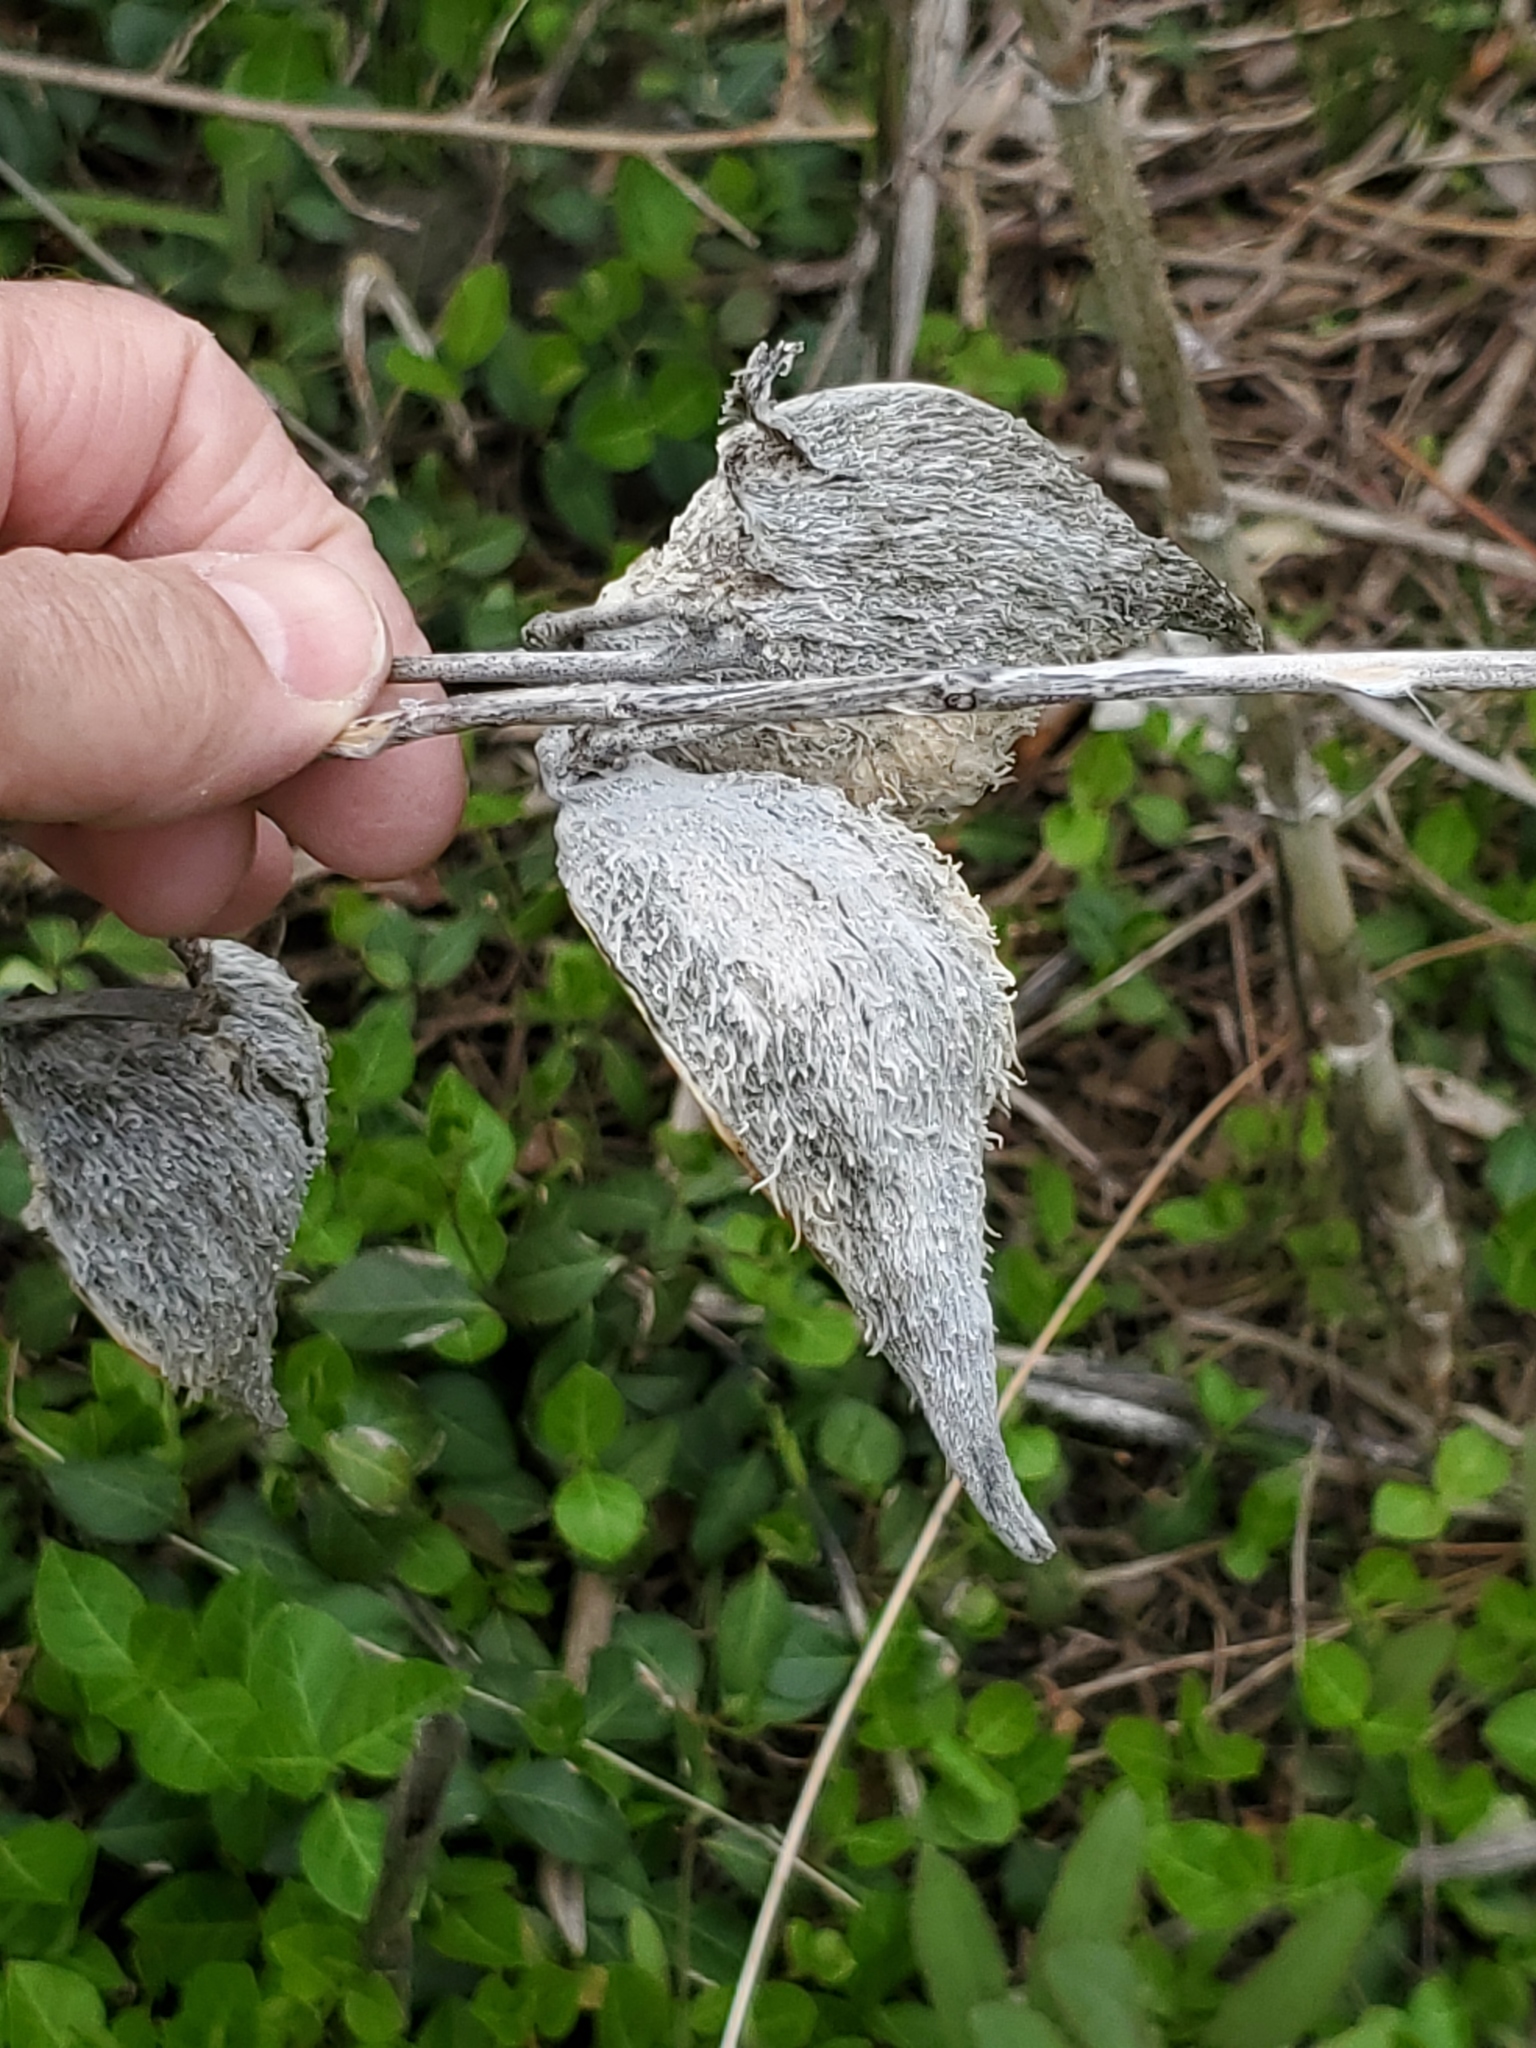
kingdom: Plantae
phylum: Tracheophyta
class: Magnoliopsida
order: Gentianales
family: Apocynaceae
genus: Asclepias
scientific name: Asclepias syriaca
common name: Common milkweed
